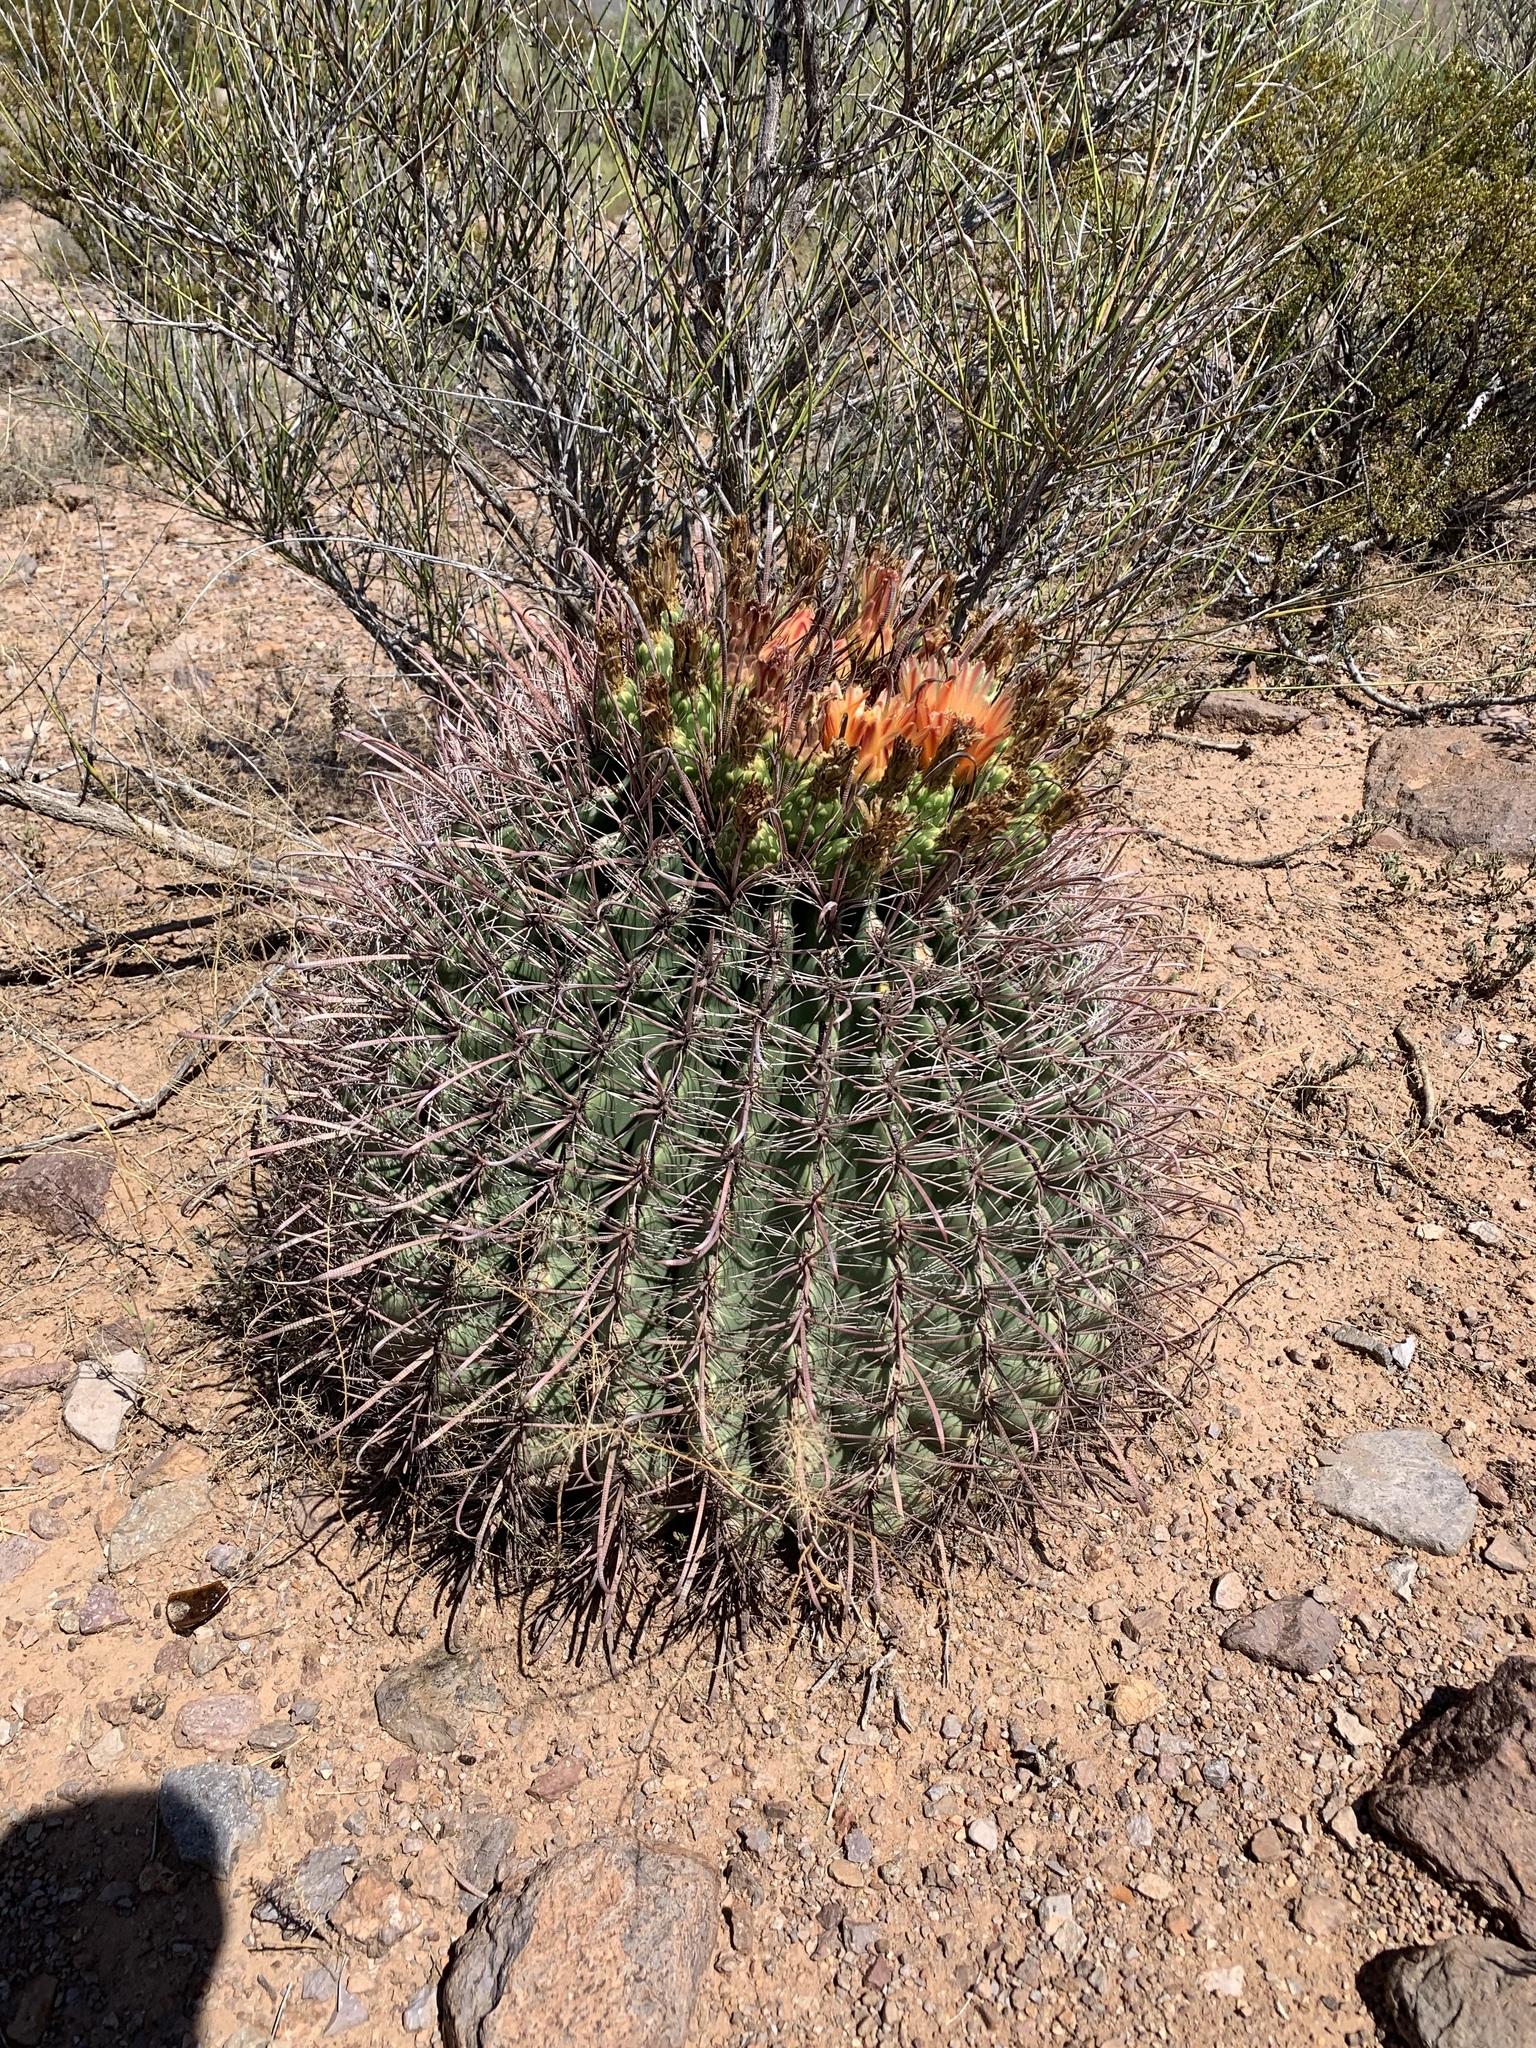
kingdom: Plantae
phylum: Tracheophyta
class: Magnoliopsida
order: Caryophyllales
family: Cactaceae
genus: Ferocactus
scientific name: Ferocactus wislizeni
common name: Candy barrel cactus
